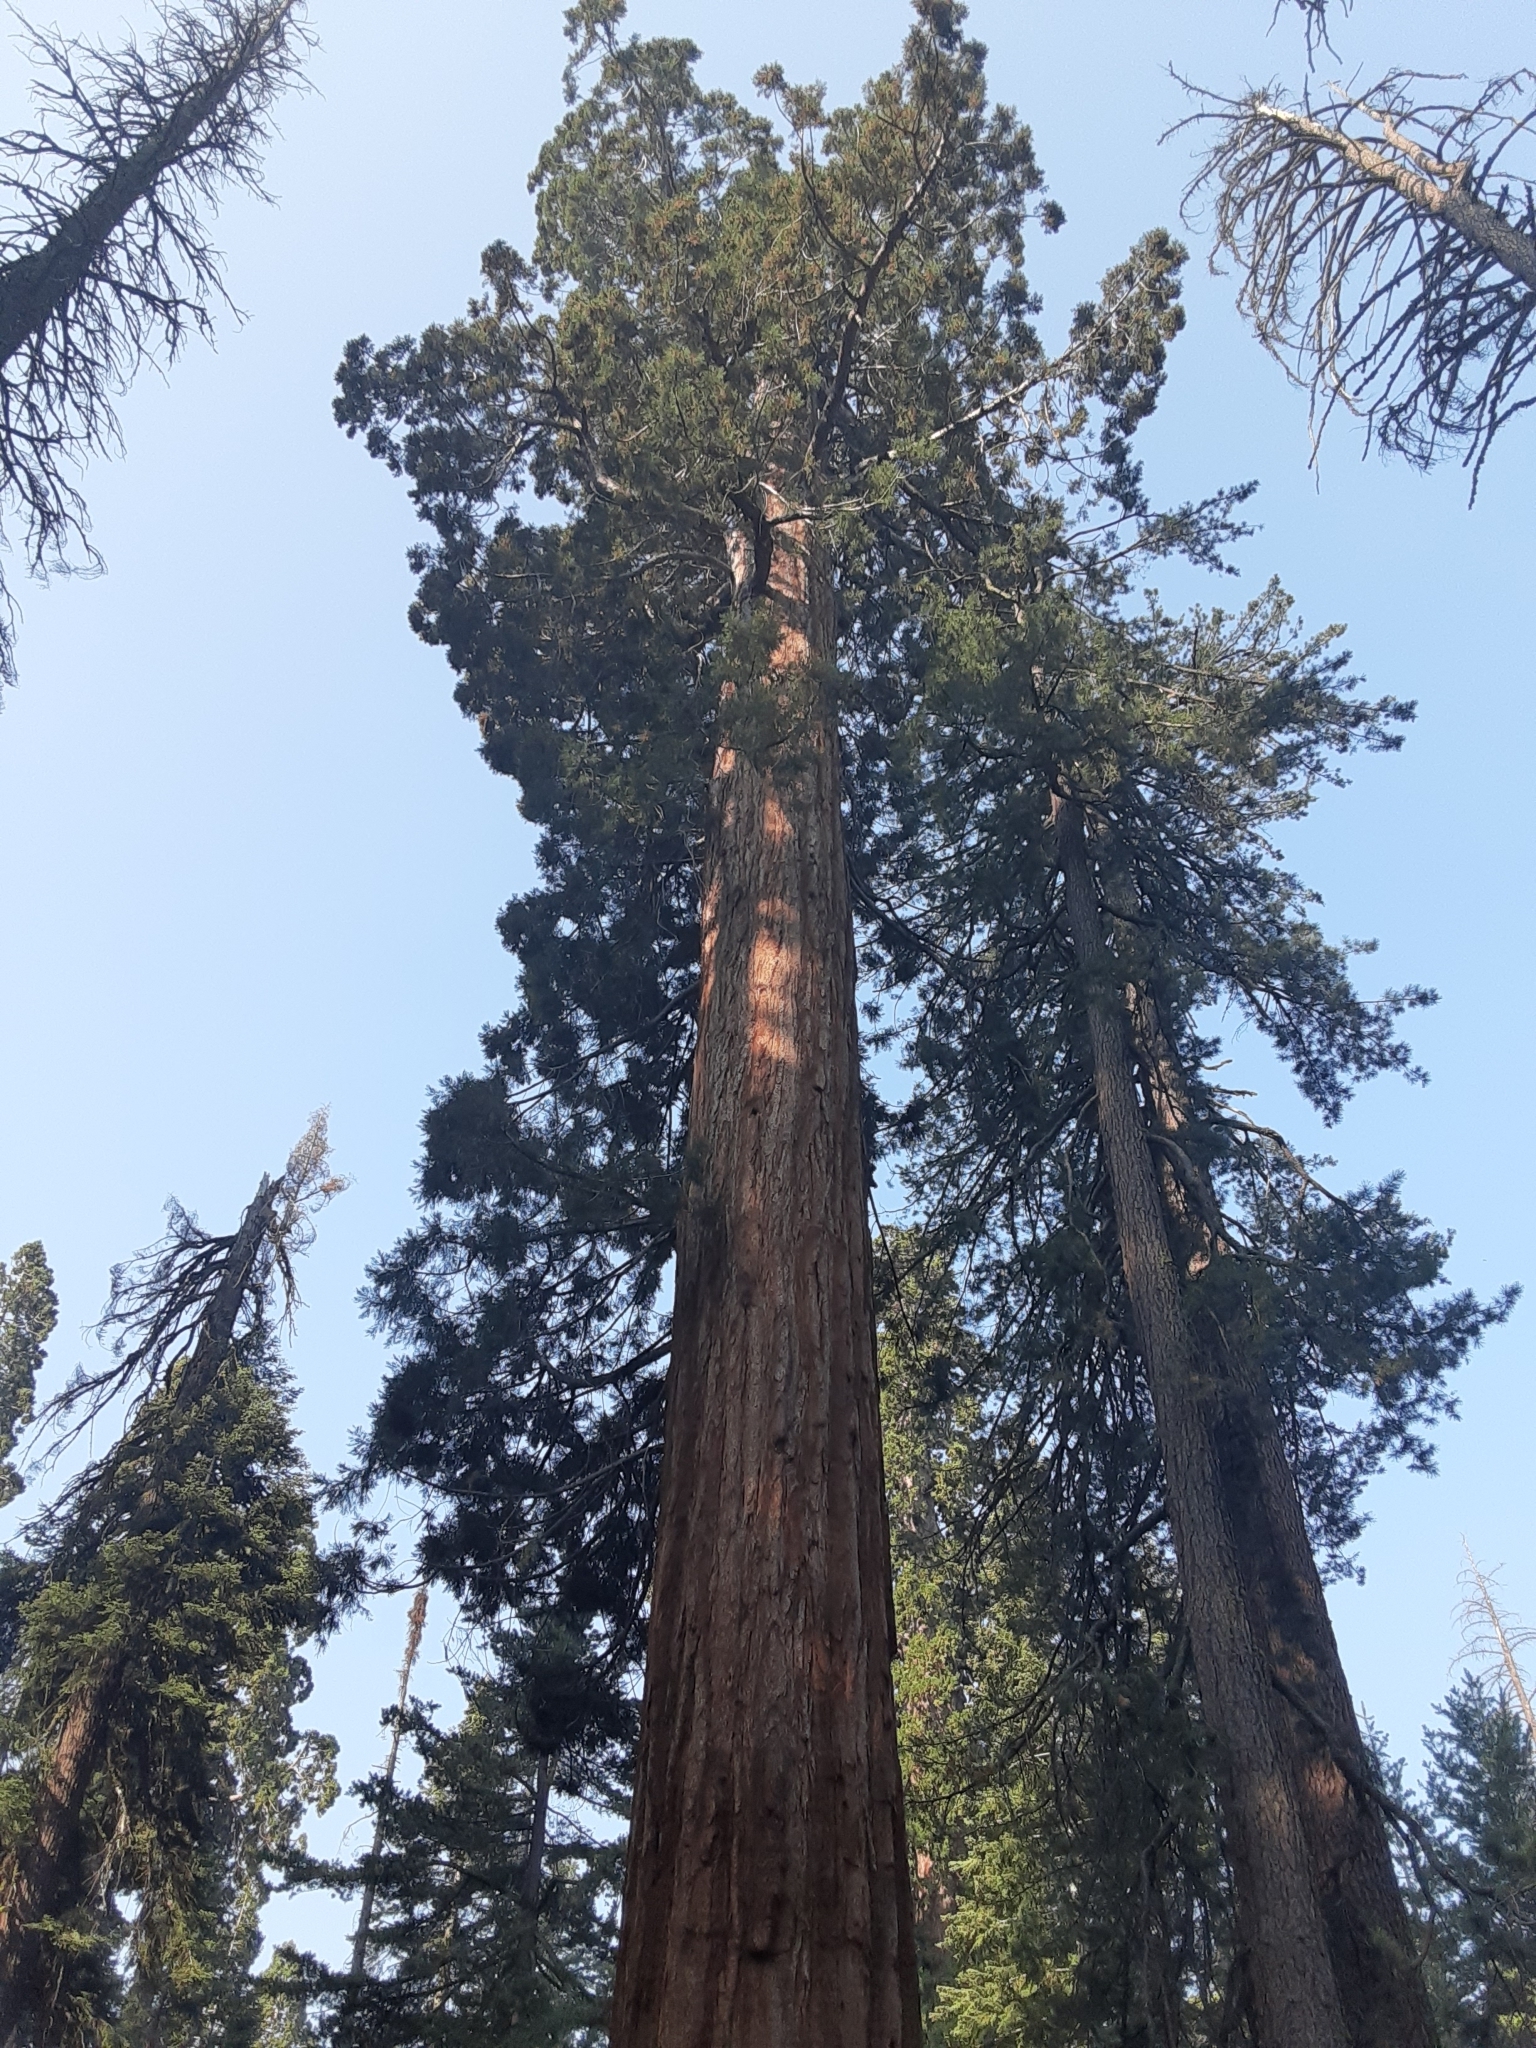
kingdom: Plantae
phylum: Tracheophyta
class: Pinopsida
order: Pinales
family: Cupressaceae
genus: Sequoiadendron
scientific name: Sequoiadendron giganteum
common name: Wellingtonia
